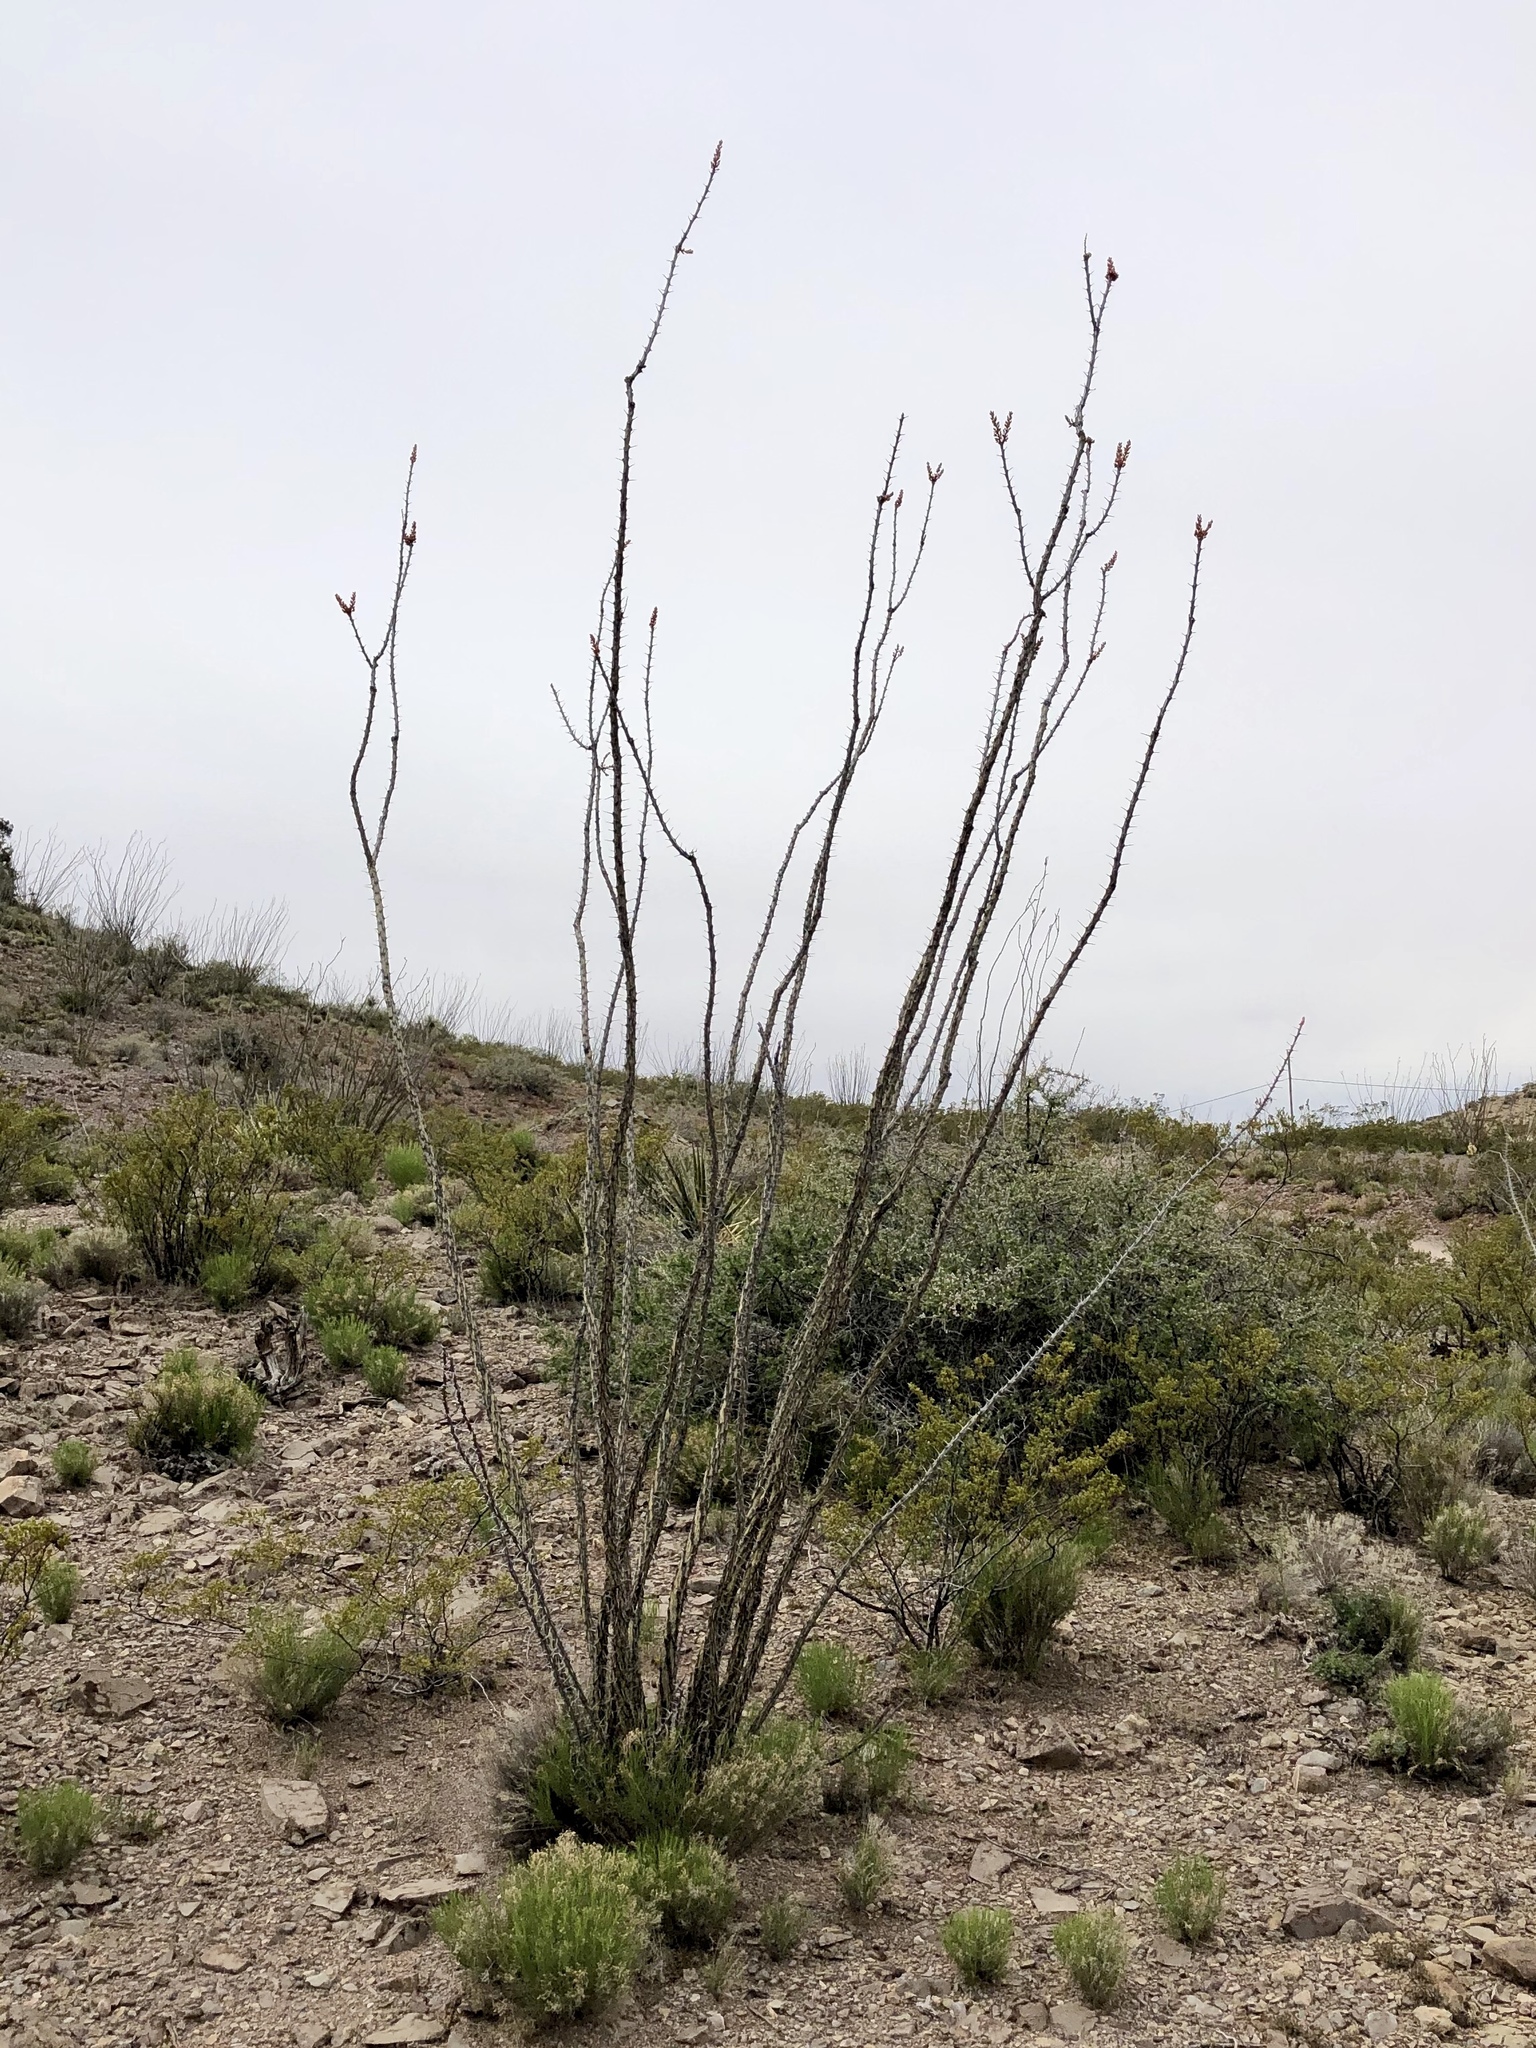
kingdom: Plantae
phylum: Tracheophyta
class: Magnoliopsida
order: Ericales
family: Fouquieriaceae
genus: Fouquieria
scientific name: Fouquieria splendens
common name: Vine-cactus
